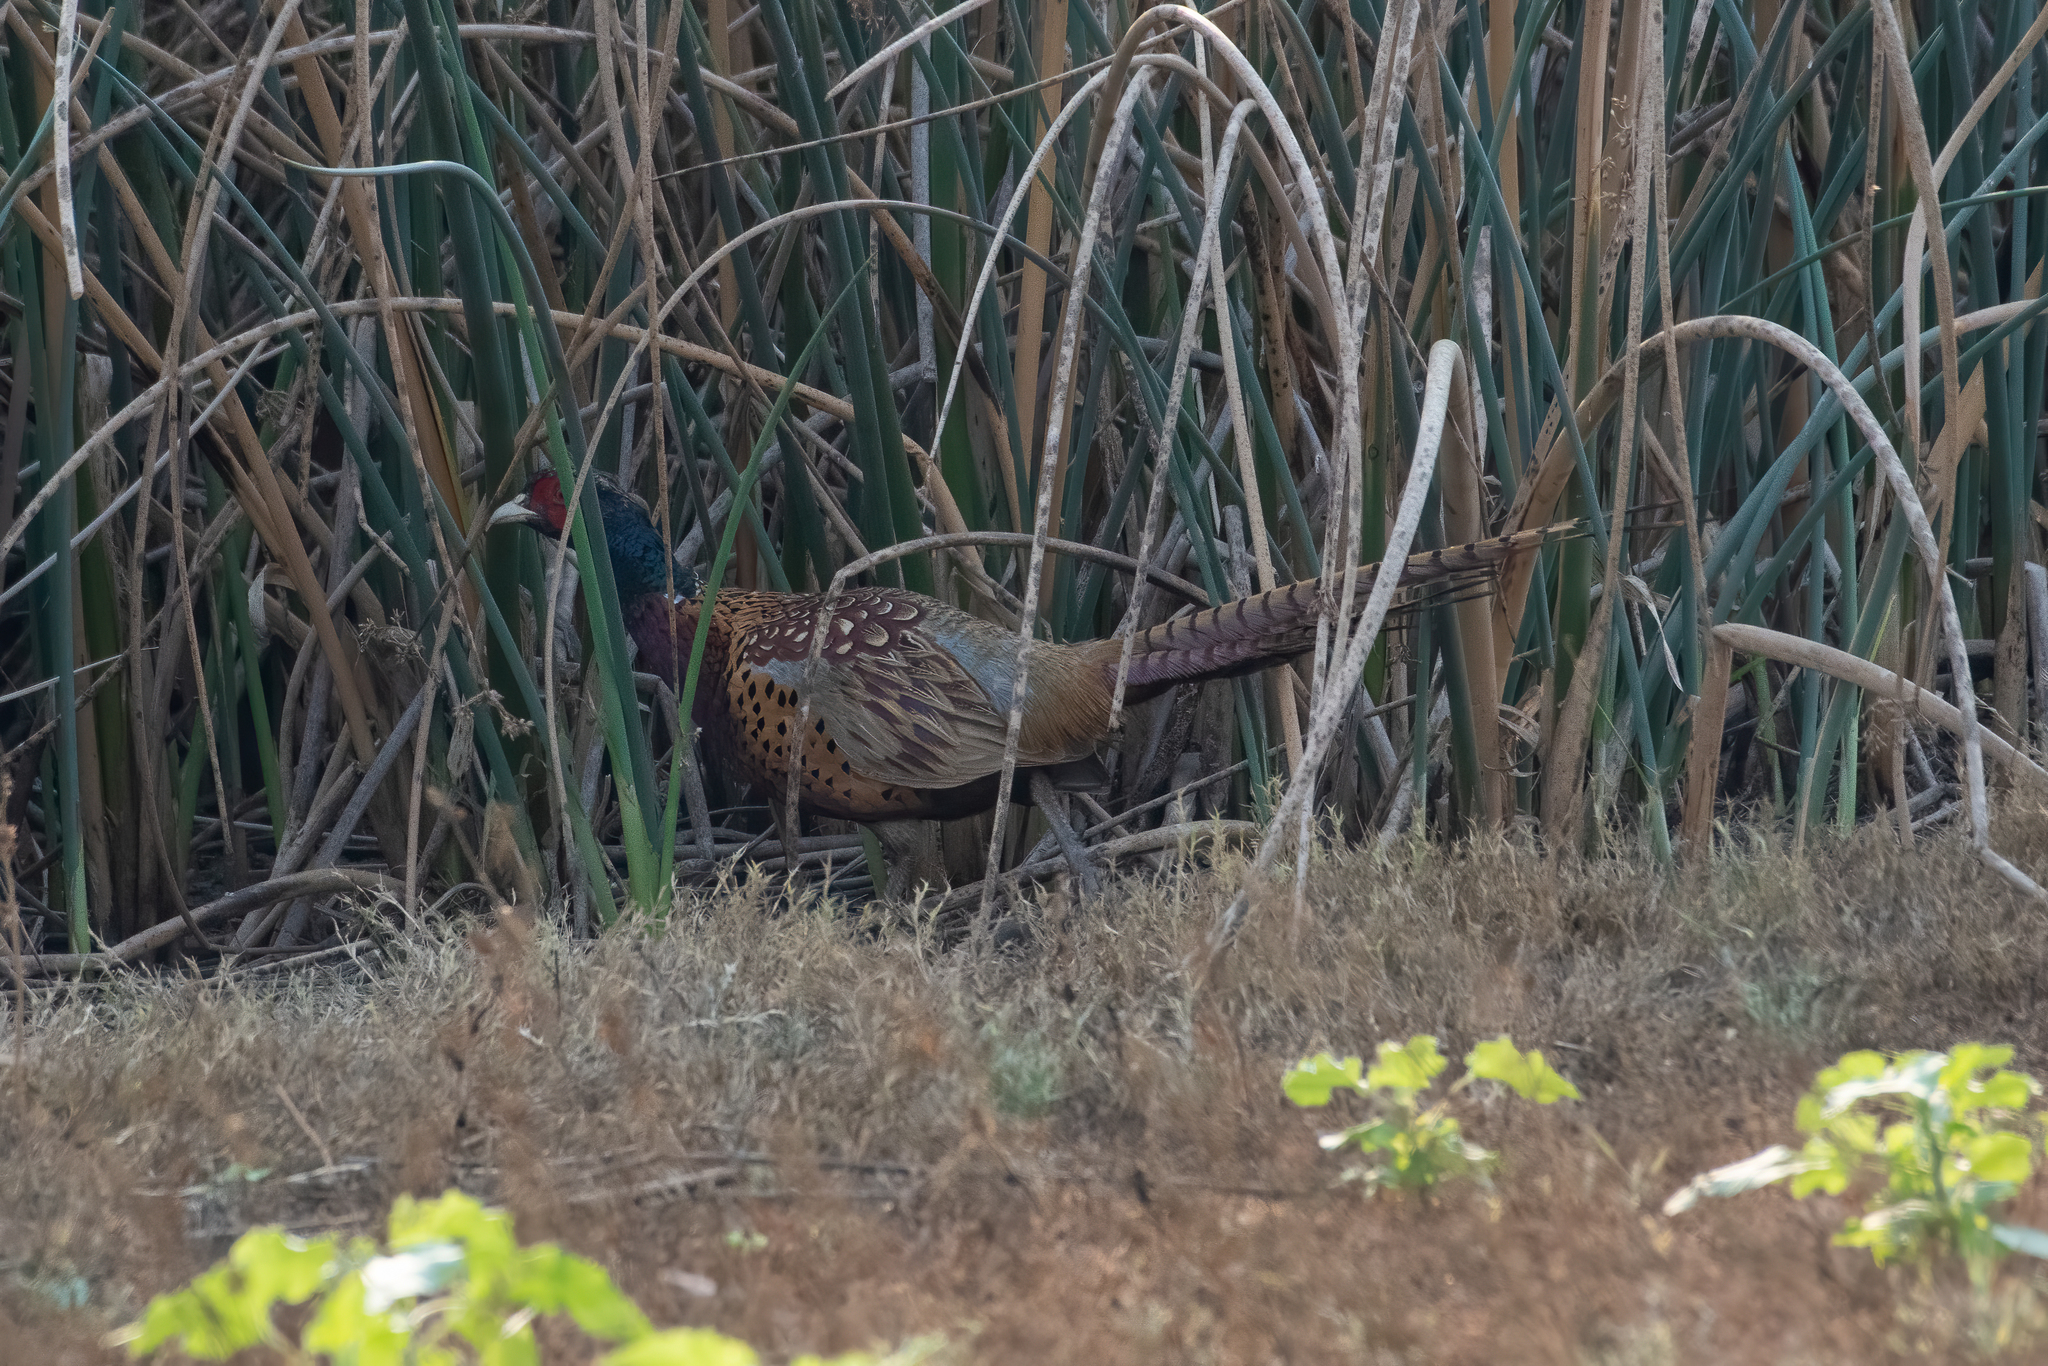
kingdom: Animalia
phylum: Chordata
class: Aves
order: Galliformes
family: Phasianidae
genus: Phasianus
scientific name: Phasianus colchicus
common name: Common pheasant
